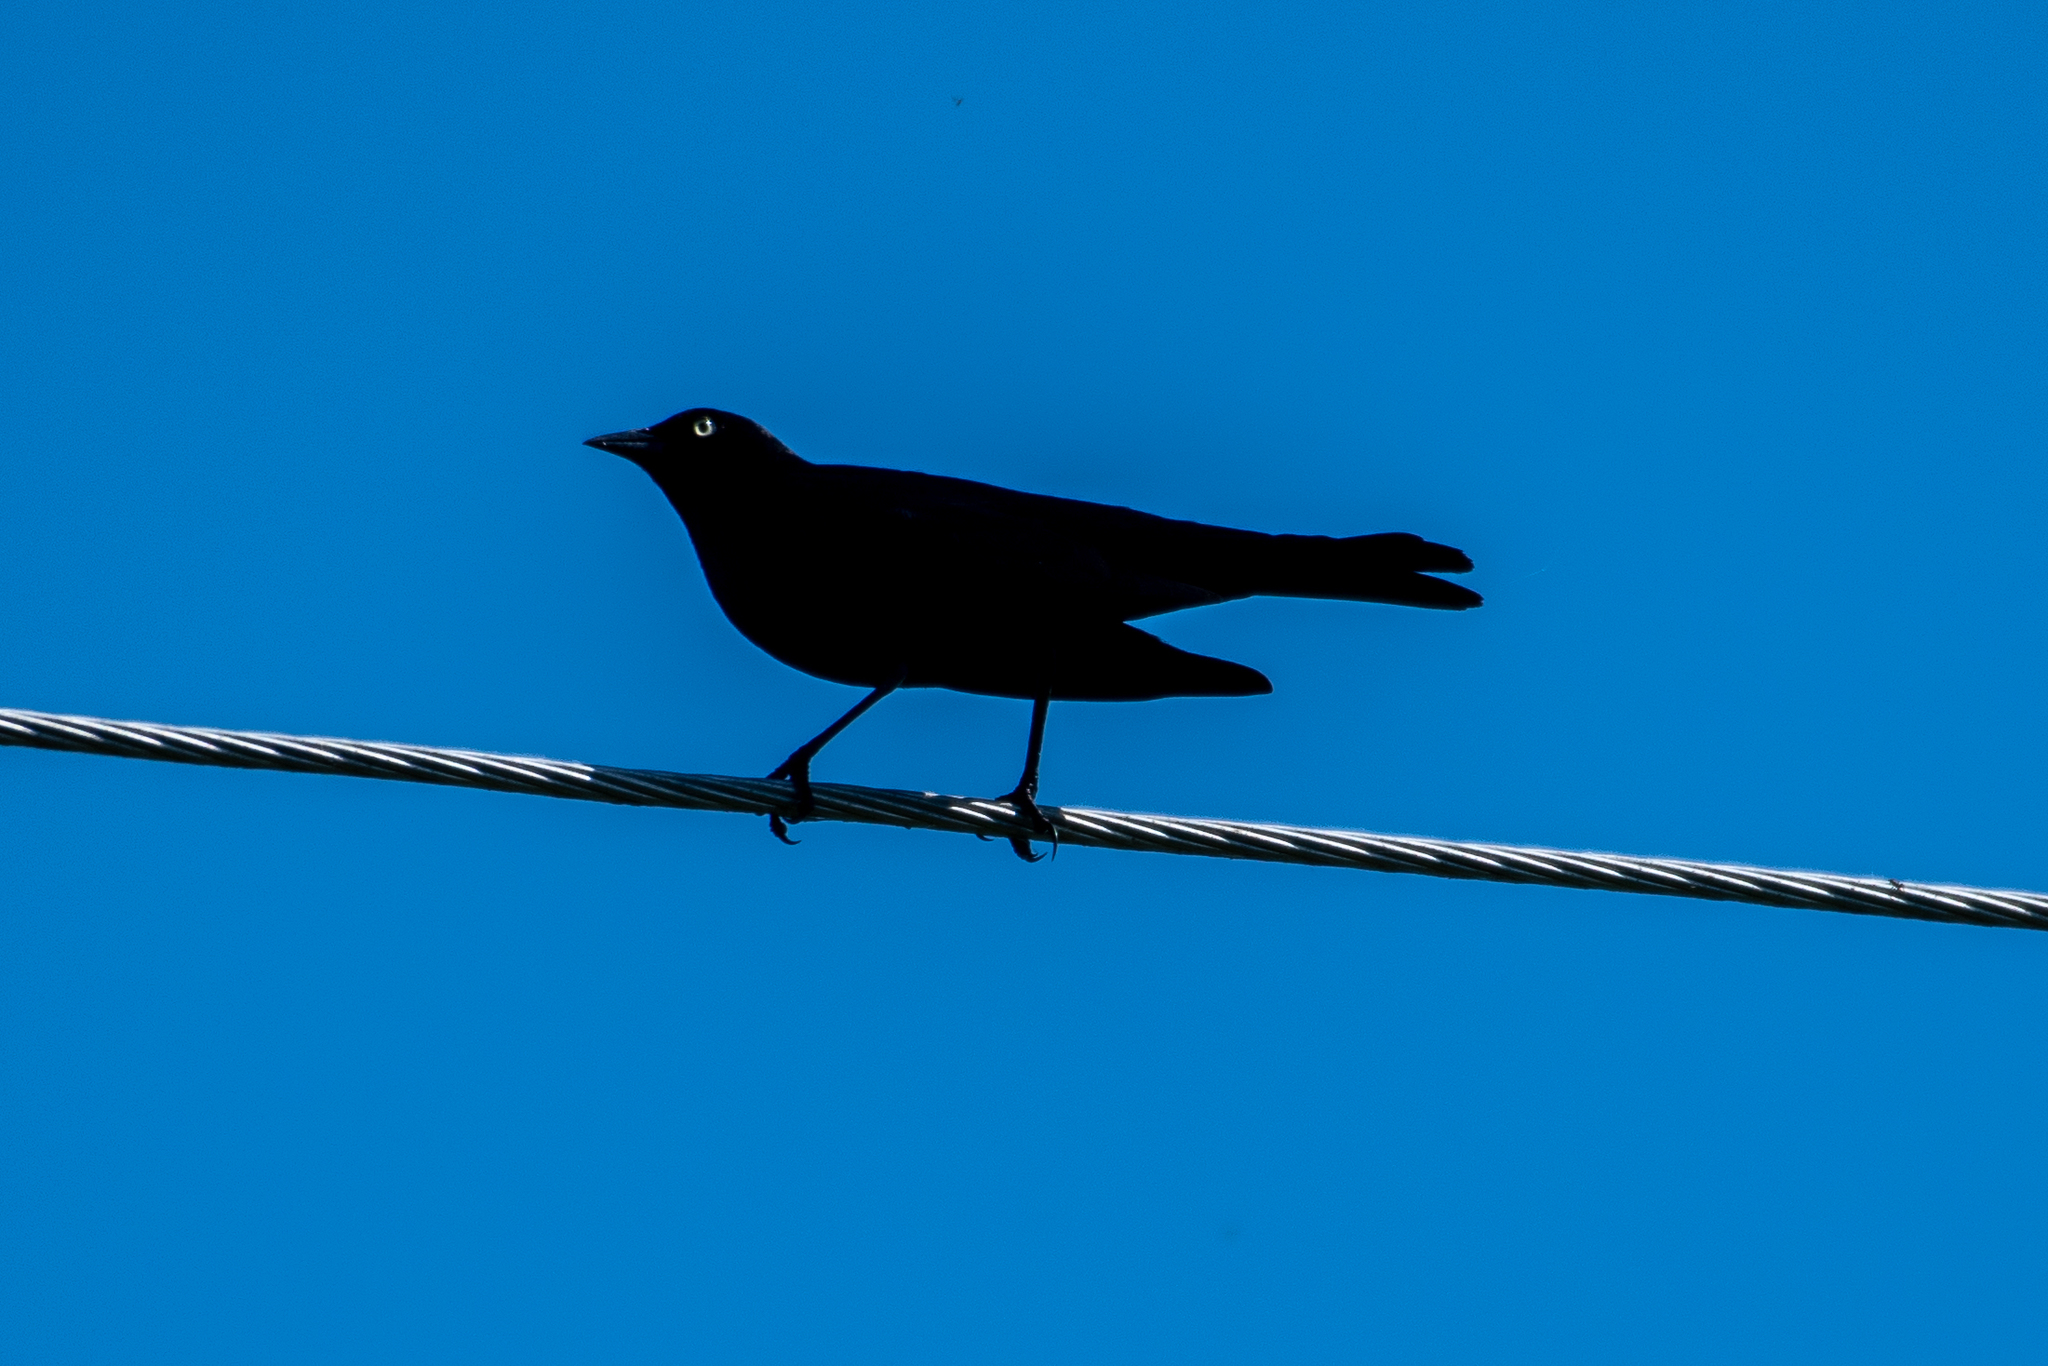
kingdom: Animalia
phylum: Chordata
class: Aves
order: Passeriformes
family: Icteridae
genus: Euphagus
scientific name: Euphagus cyanocephalus
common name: Brewer's blackbird
